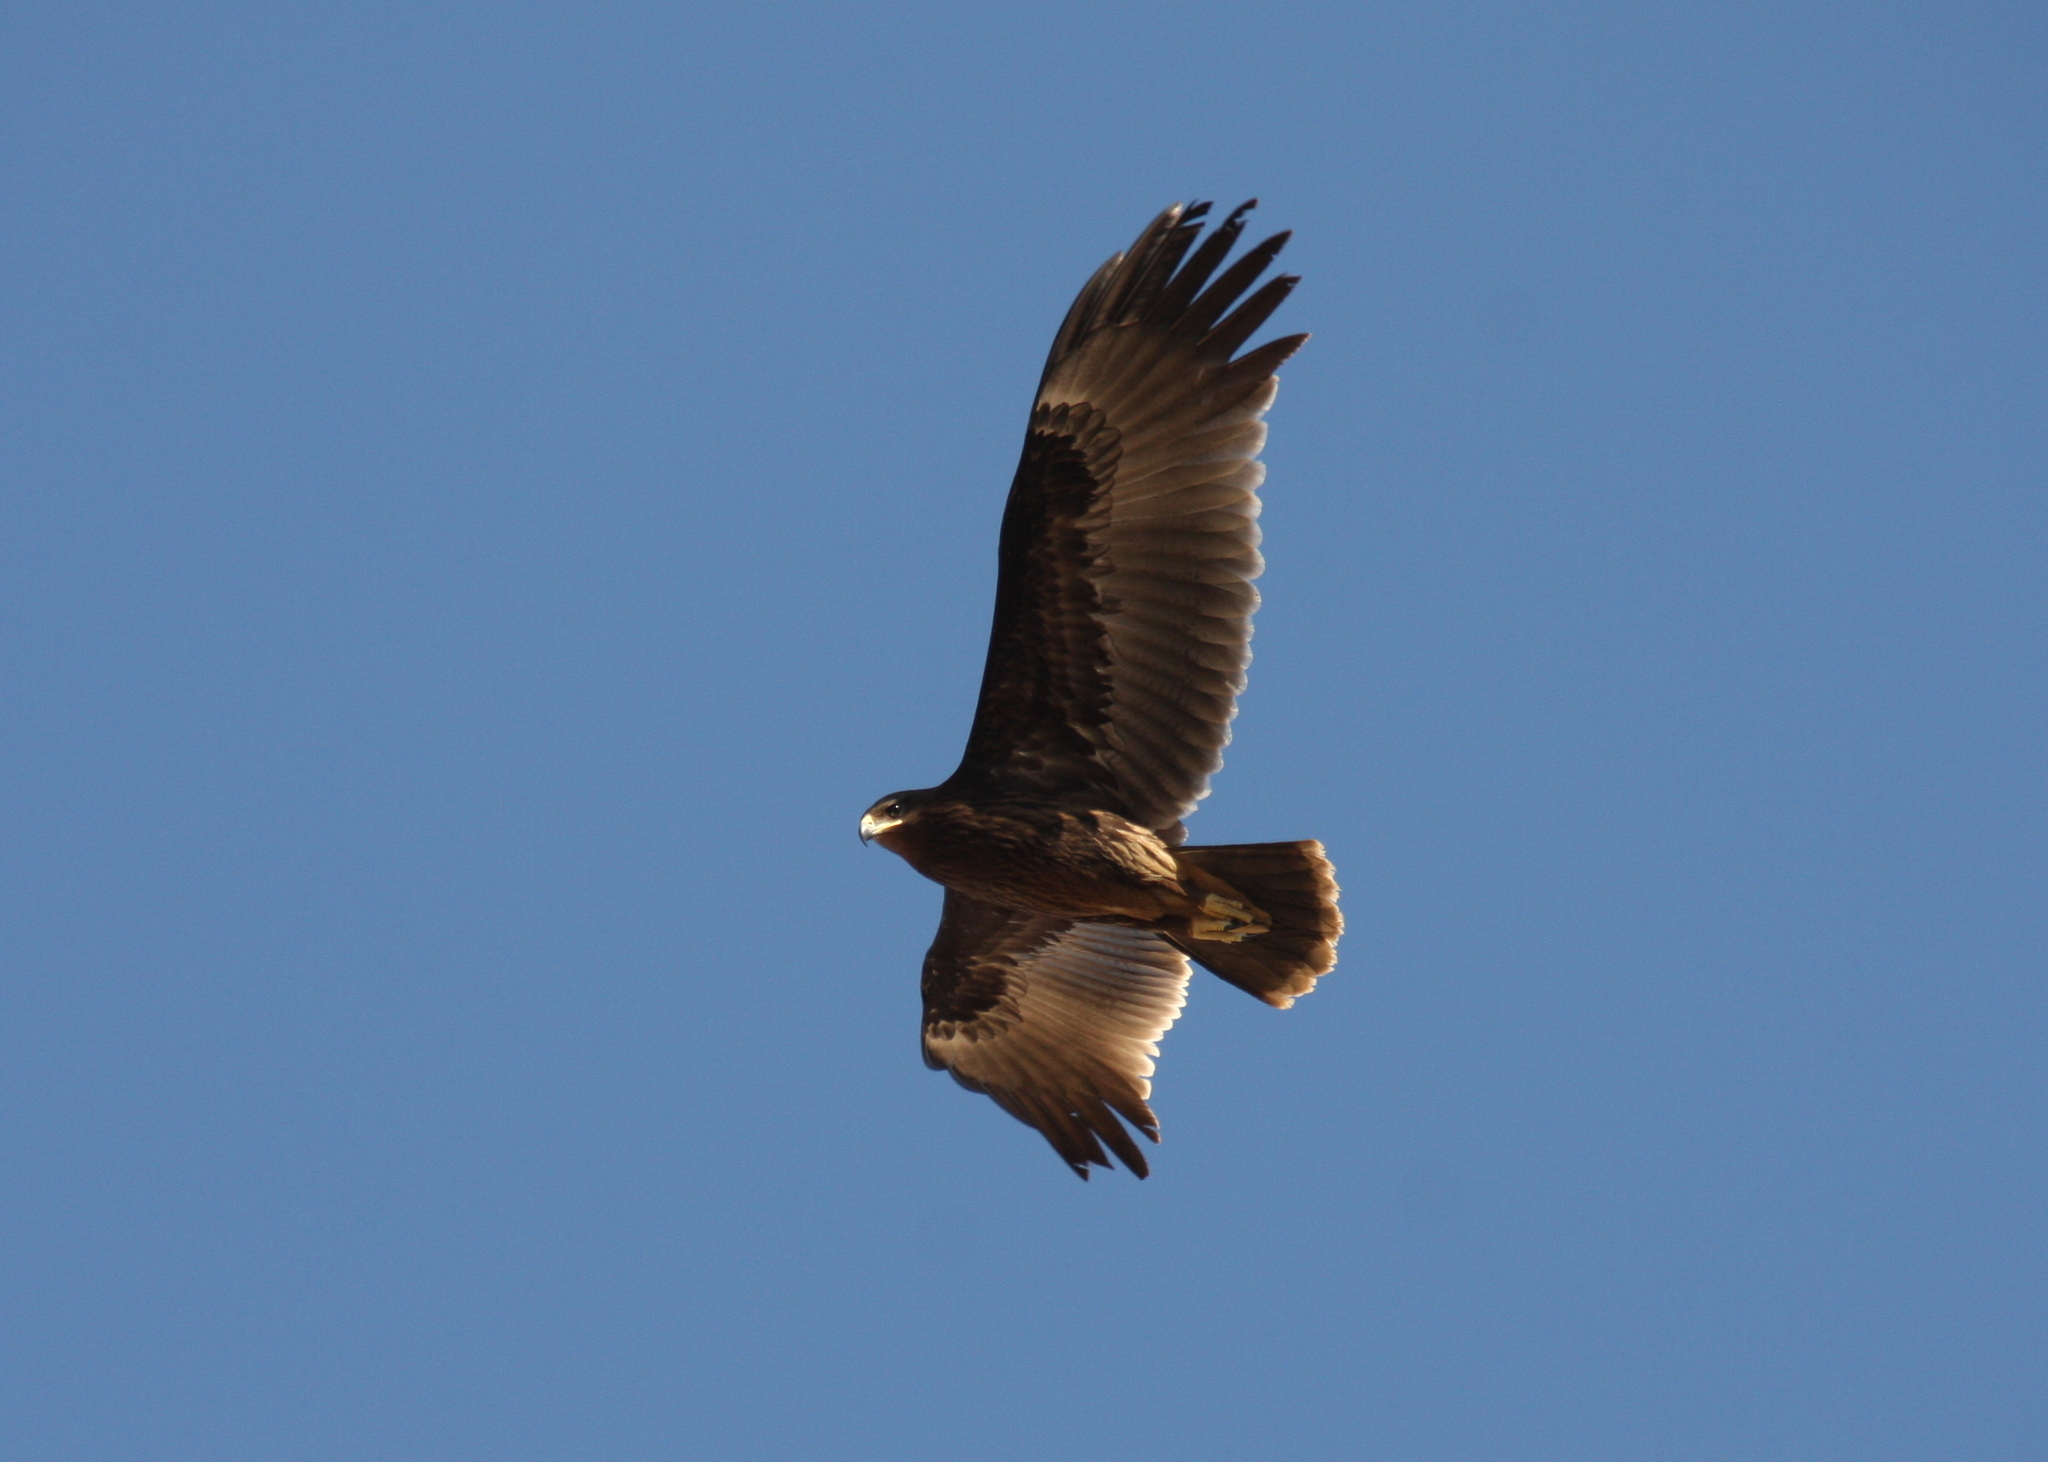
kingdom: Animalia
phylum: Chordata
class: Aves
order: Accipitriformes
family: Accipitridae
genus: Aquila
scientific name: Aquila clanga
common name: Greater spotted eagle
